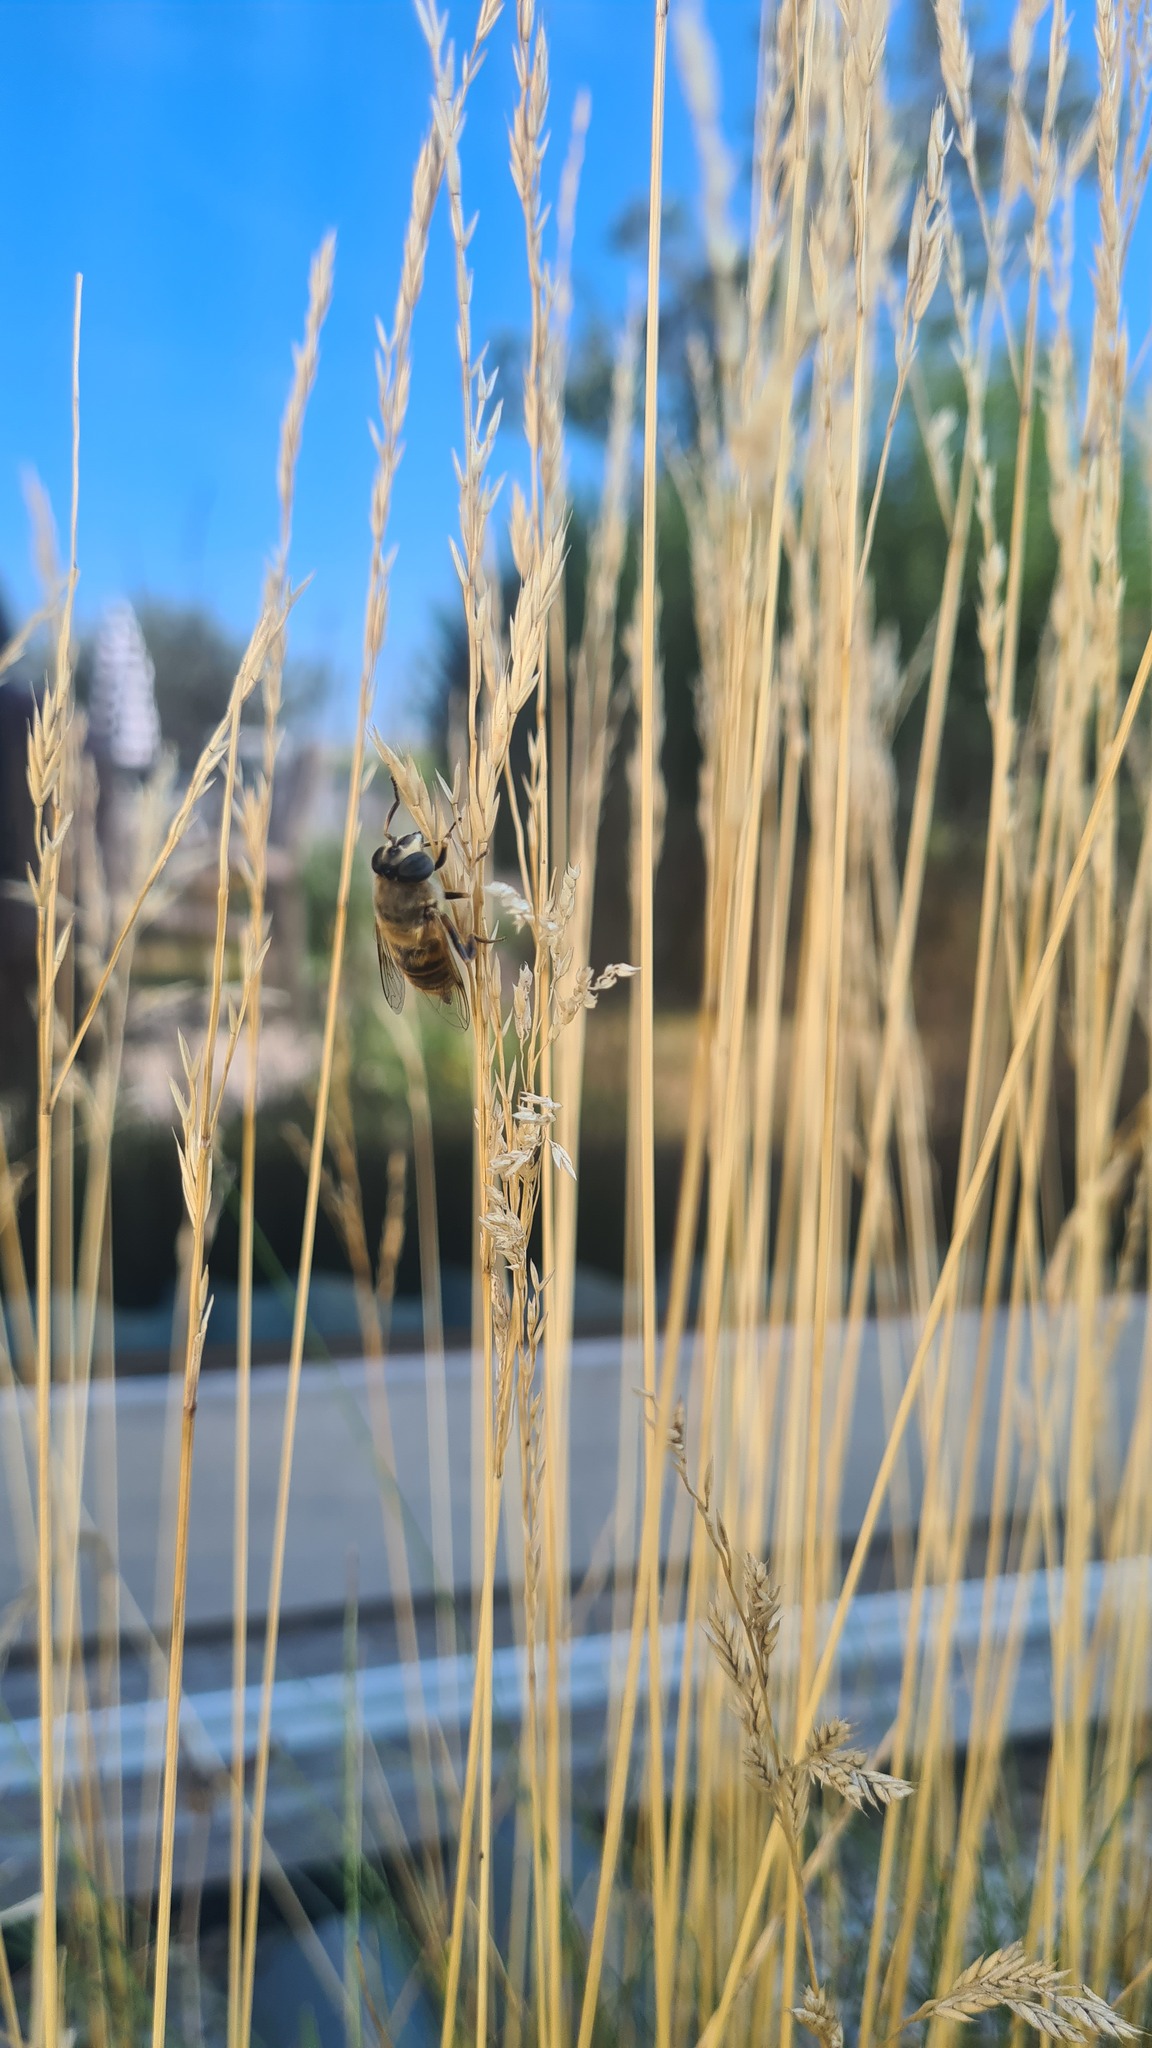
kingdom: Animalia
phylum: Arthropoda
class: Insecta
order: Diptera
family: Syrphidae
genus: Eristalis
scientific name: Eristalis tenax
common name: Drone fly
